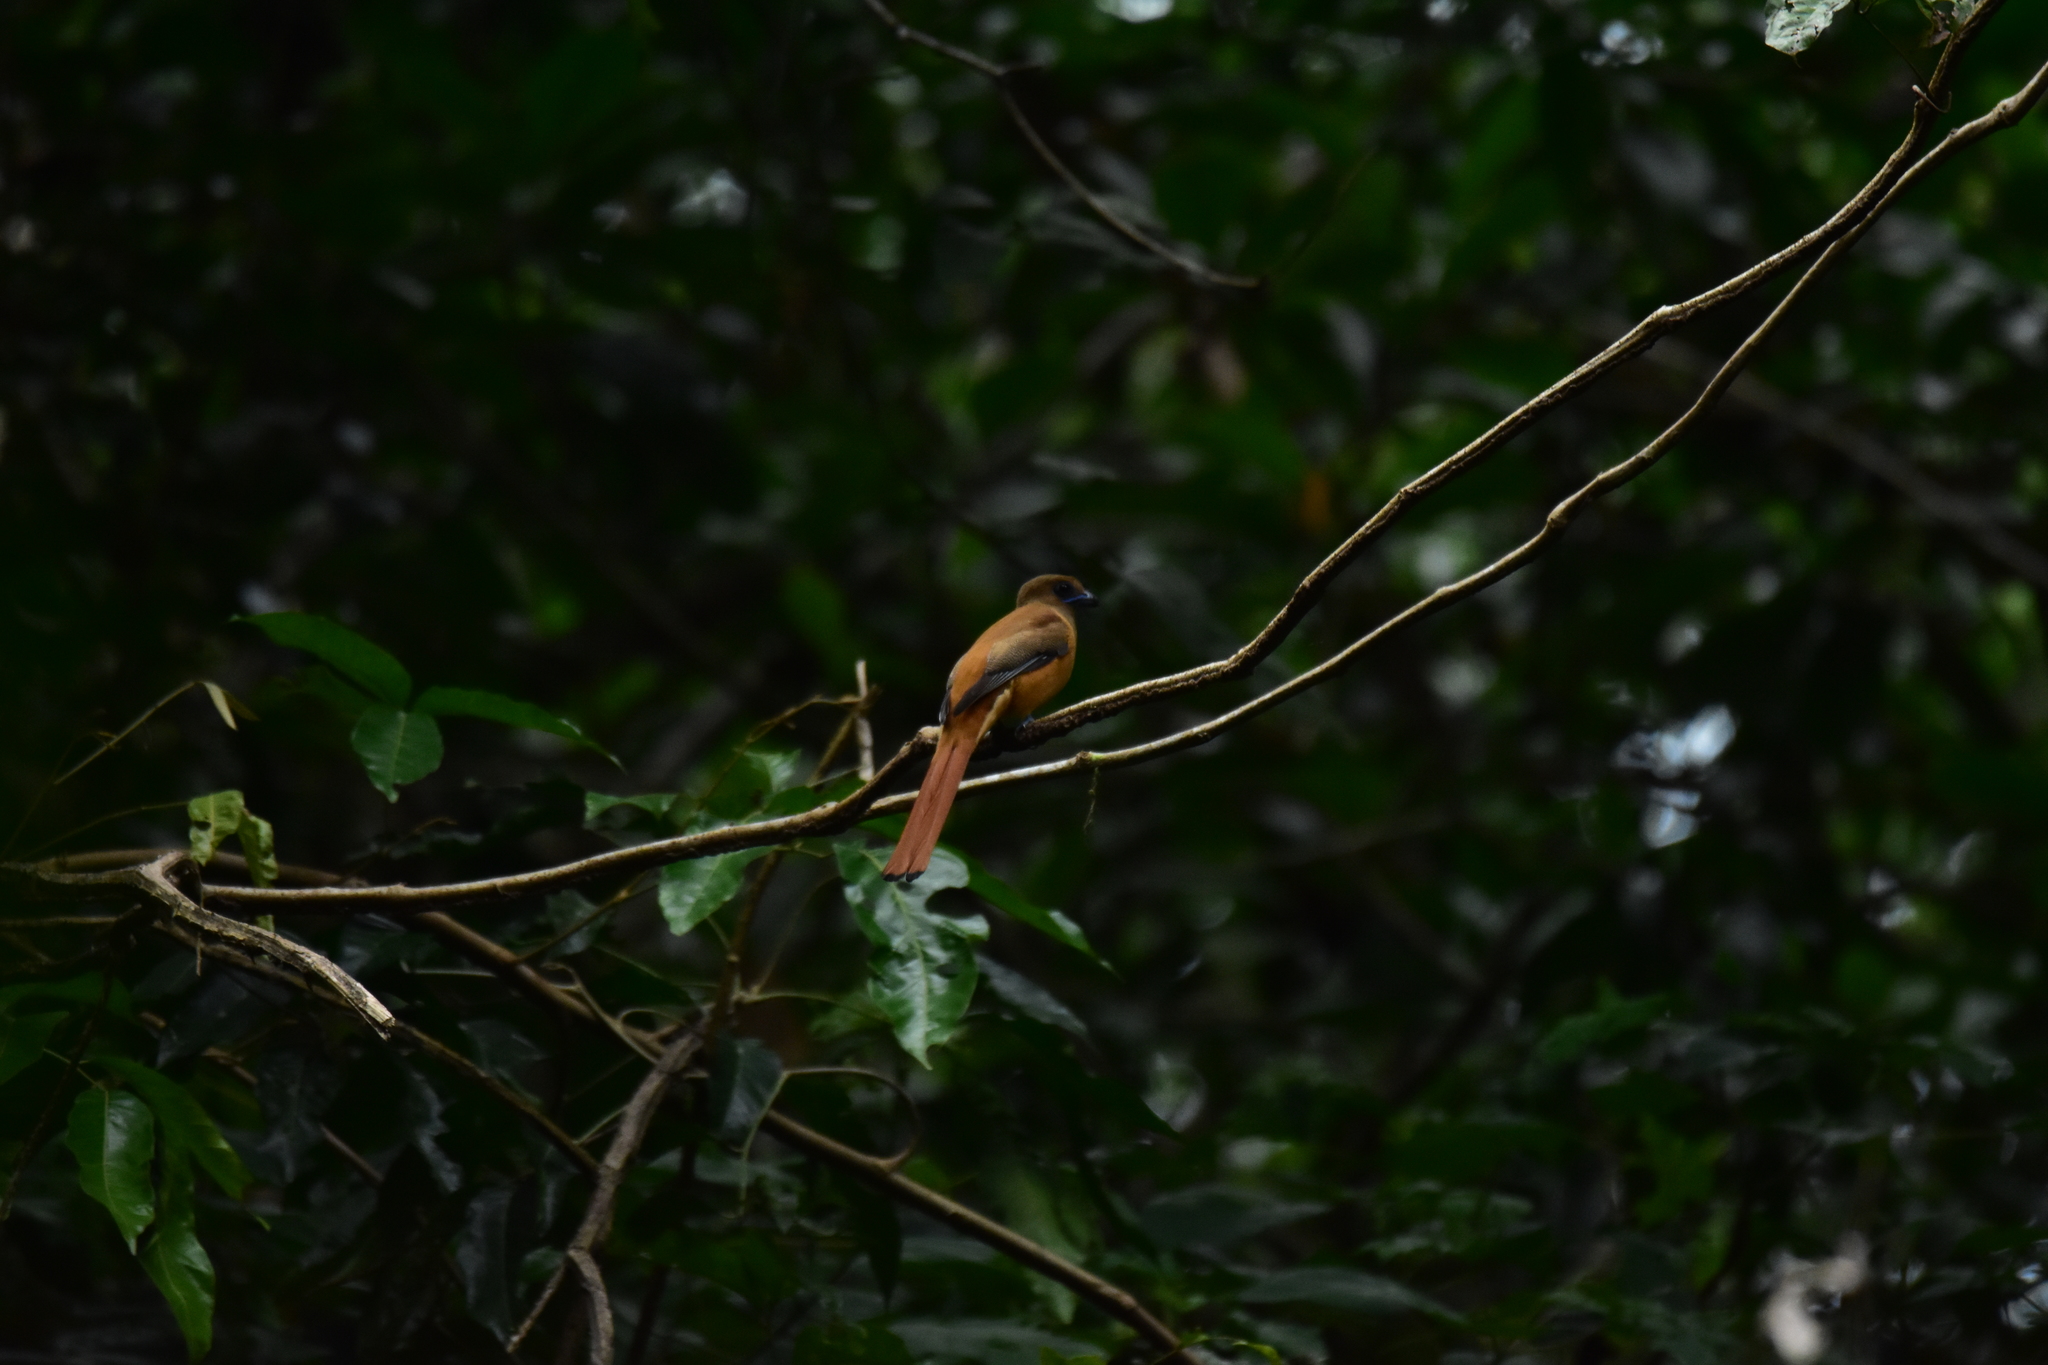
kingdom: Animalia
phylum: Chordata
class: Aves
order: Trogoniformes
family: Trogonidae
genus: Harpactes
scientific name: Harpactes fasciatus
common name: Malabar trogon
